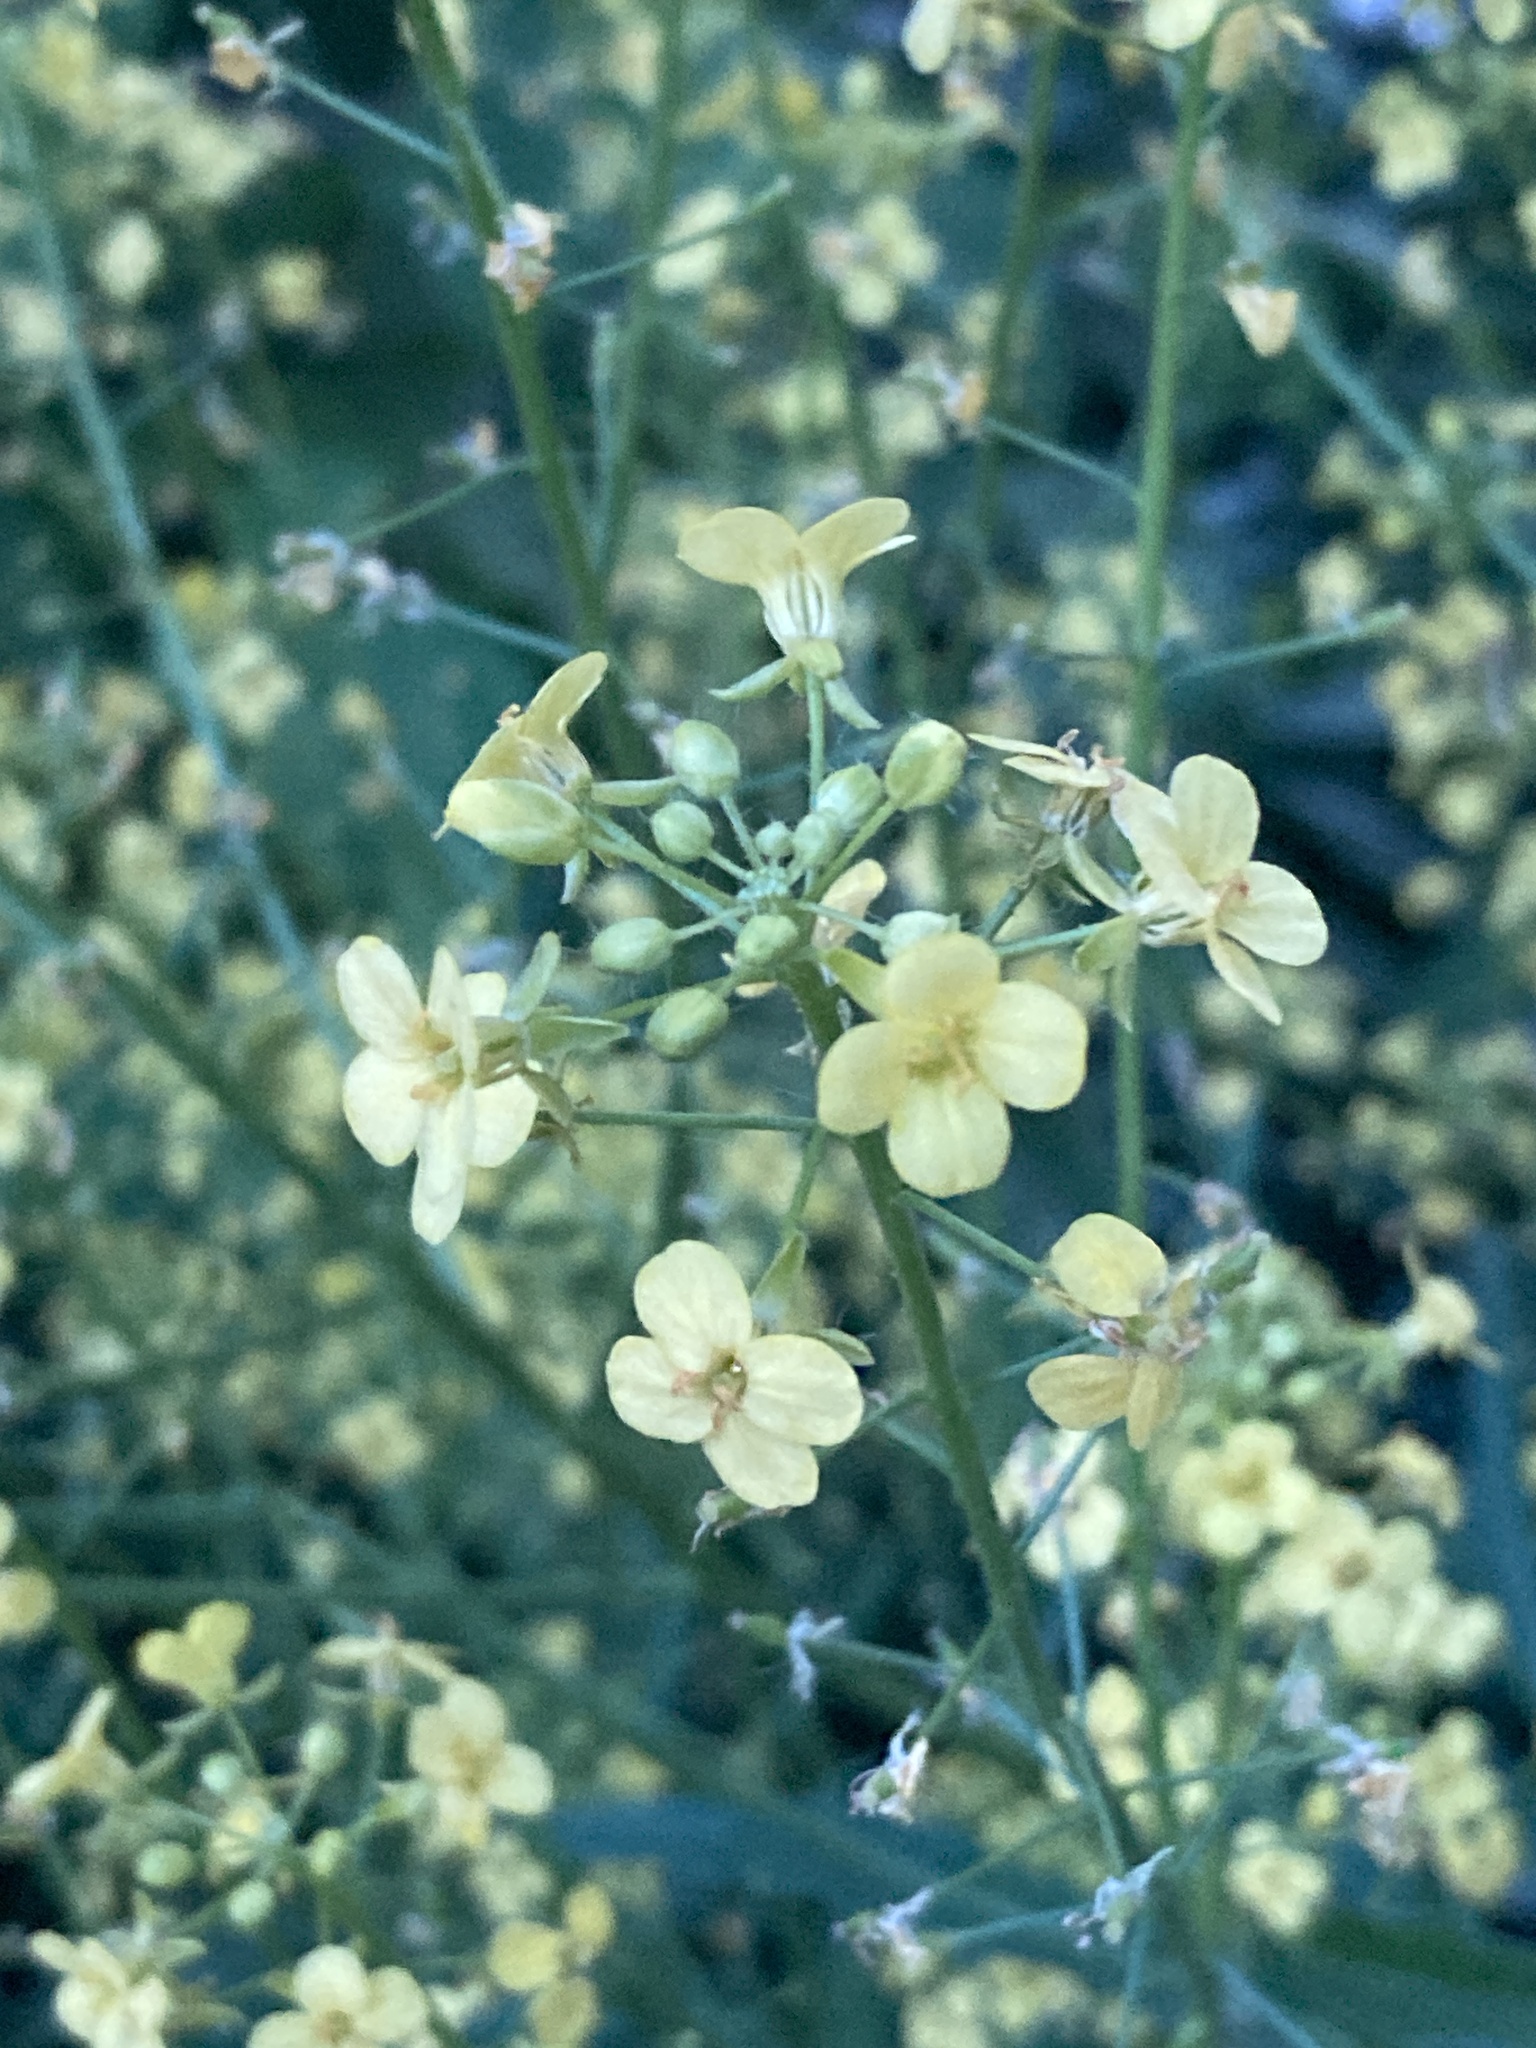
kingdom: Plantae
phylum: Tracheophyta
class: Magnoliopsida
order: Brassicales
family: Brassicaceae
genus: Bunias
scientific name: Bunias orientalis
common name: Warty-cabbage
